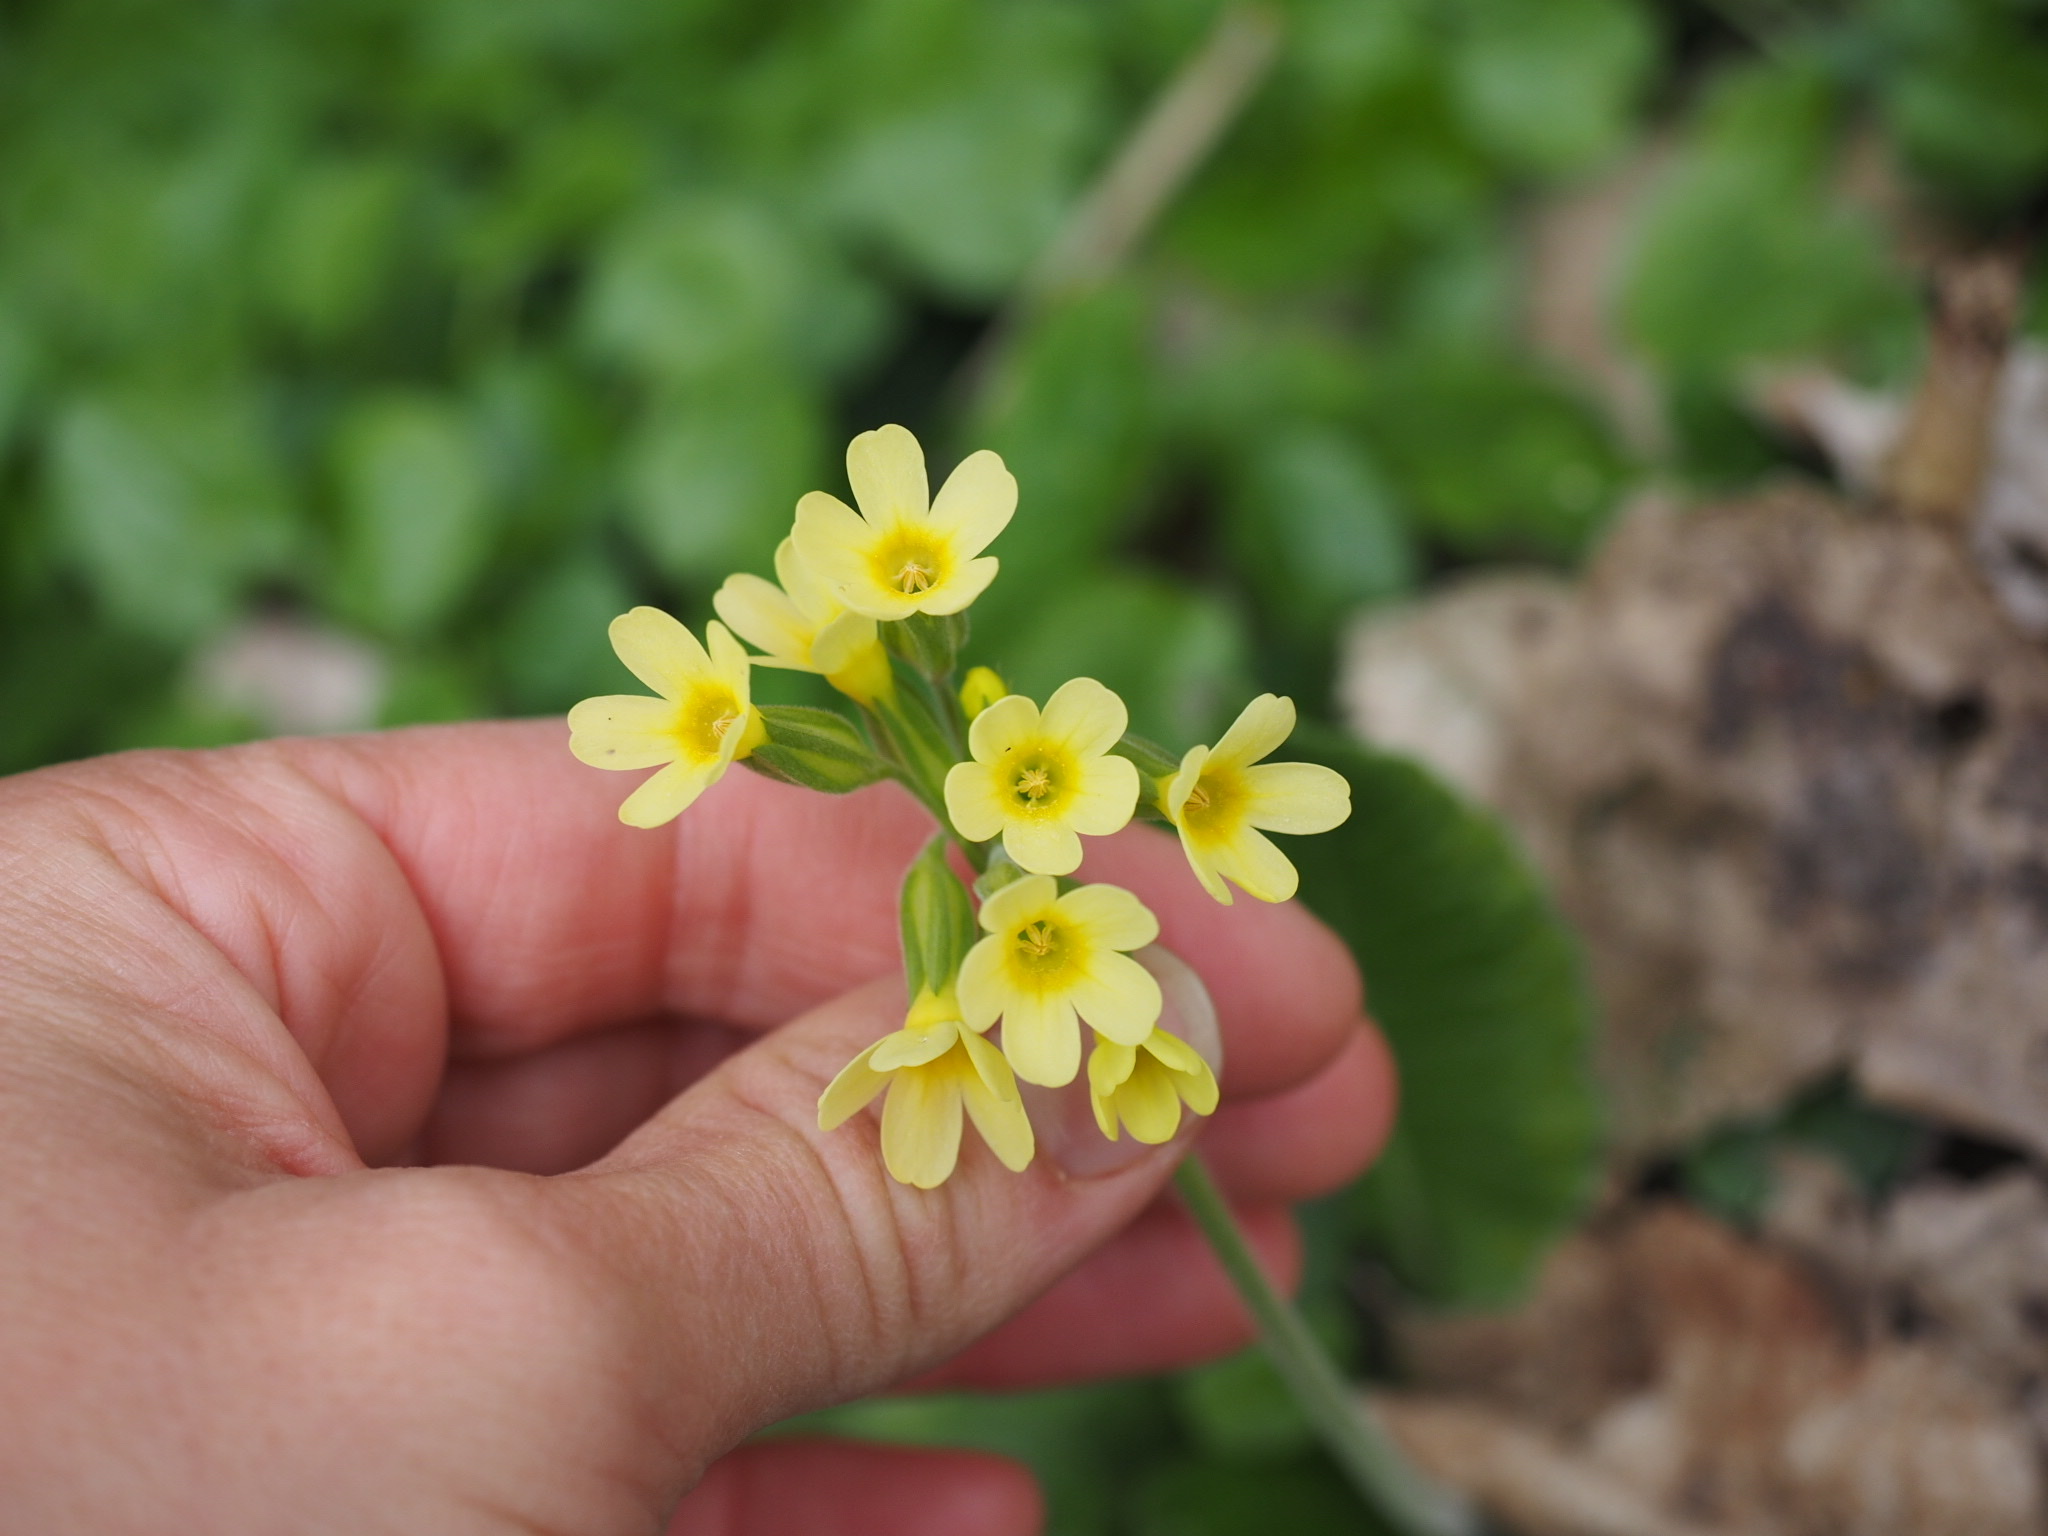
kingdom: Plantae
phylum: Tracheophyta
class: Magnoliopsida
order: Ericales
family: Primulaceae
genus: Primula
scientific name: Primula elatior
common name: Oxlip
